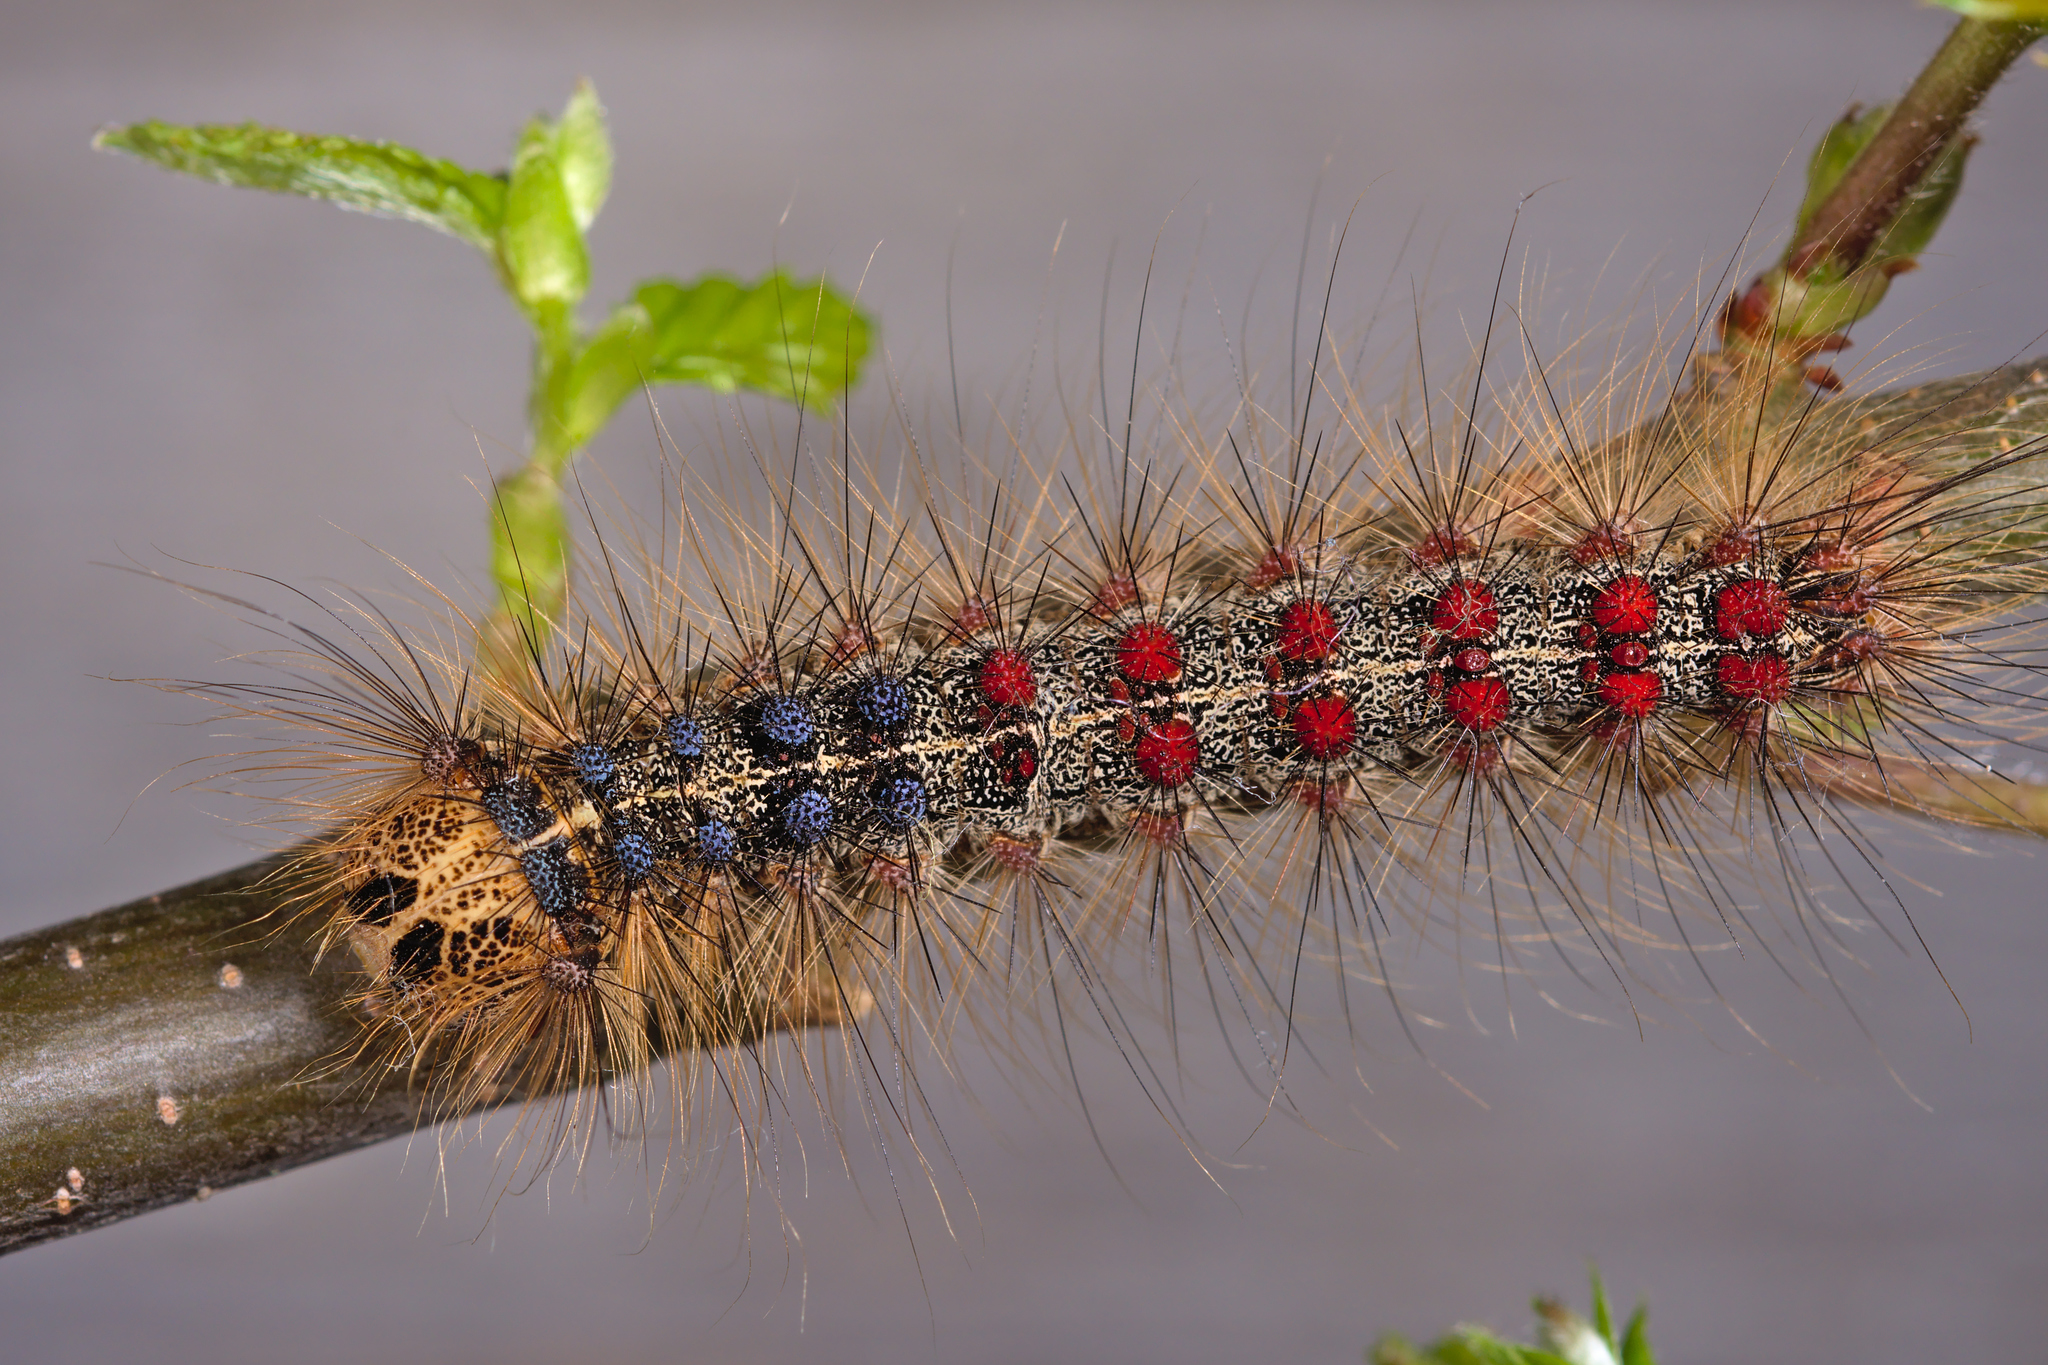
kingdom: Animalia
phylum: Arthropoda
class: Insecta
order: Lepidoptera
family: Erebidae
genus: Lymantria
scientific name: Lymantria dispar
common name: Gypsy moth
